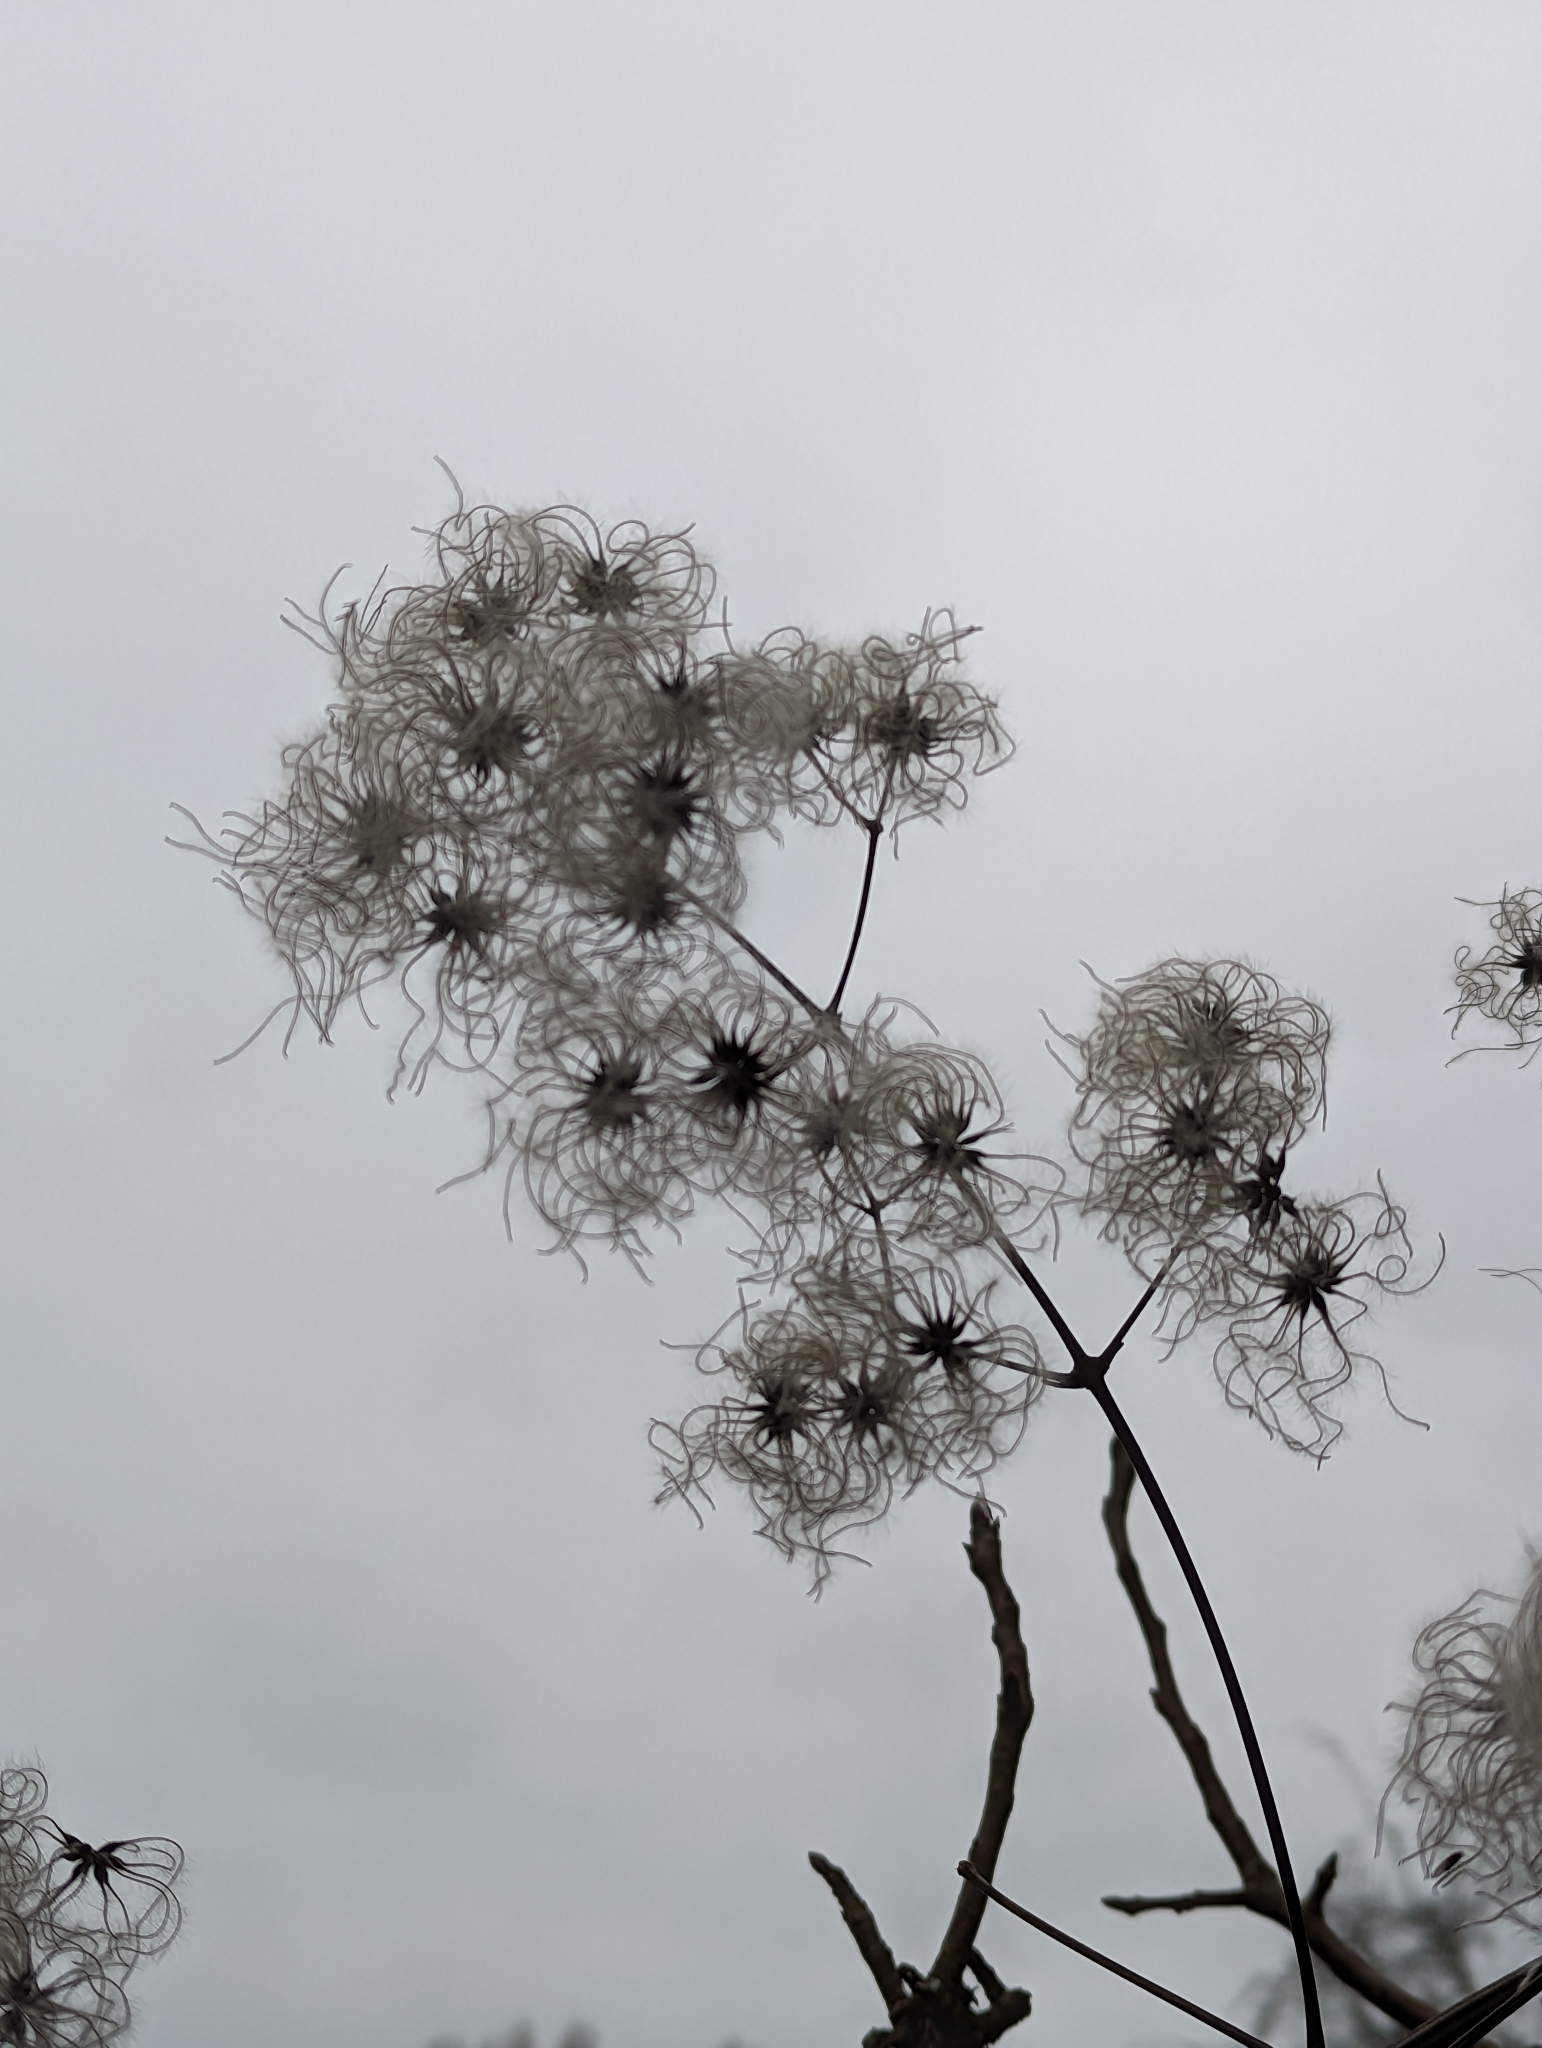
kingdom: Plantae
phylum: Tracheophyta
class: Magnoliopsida
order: Ranunculales
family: Ranunculaceae
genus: Clematis
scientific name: Clematis vitalba
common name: Evergreen clematis
